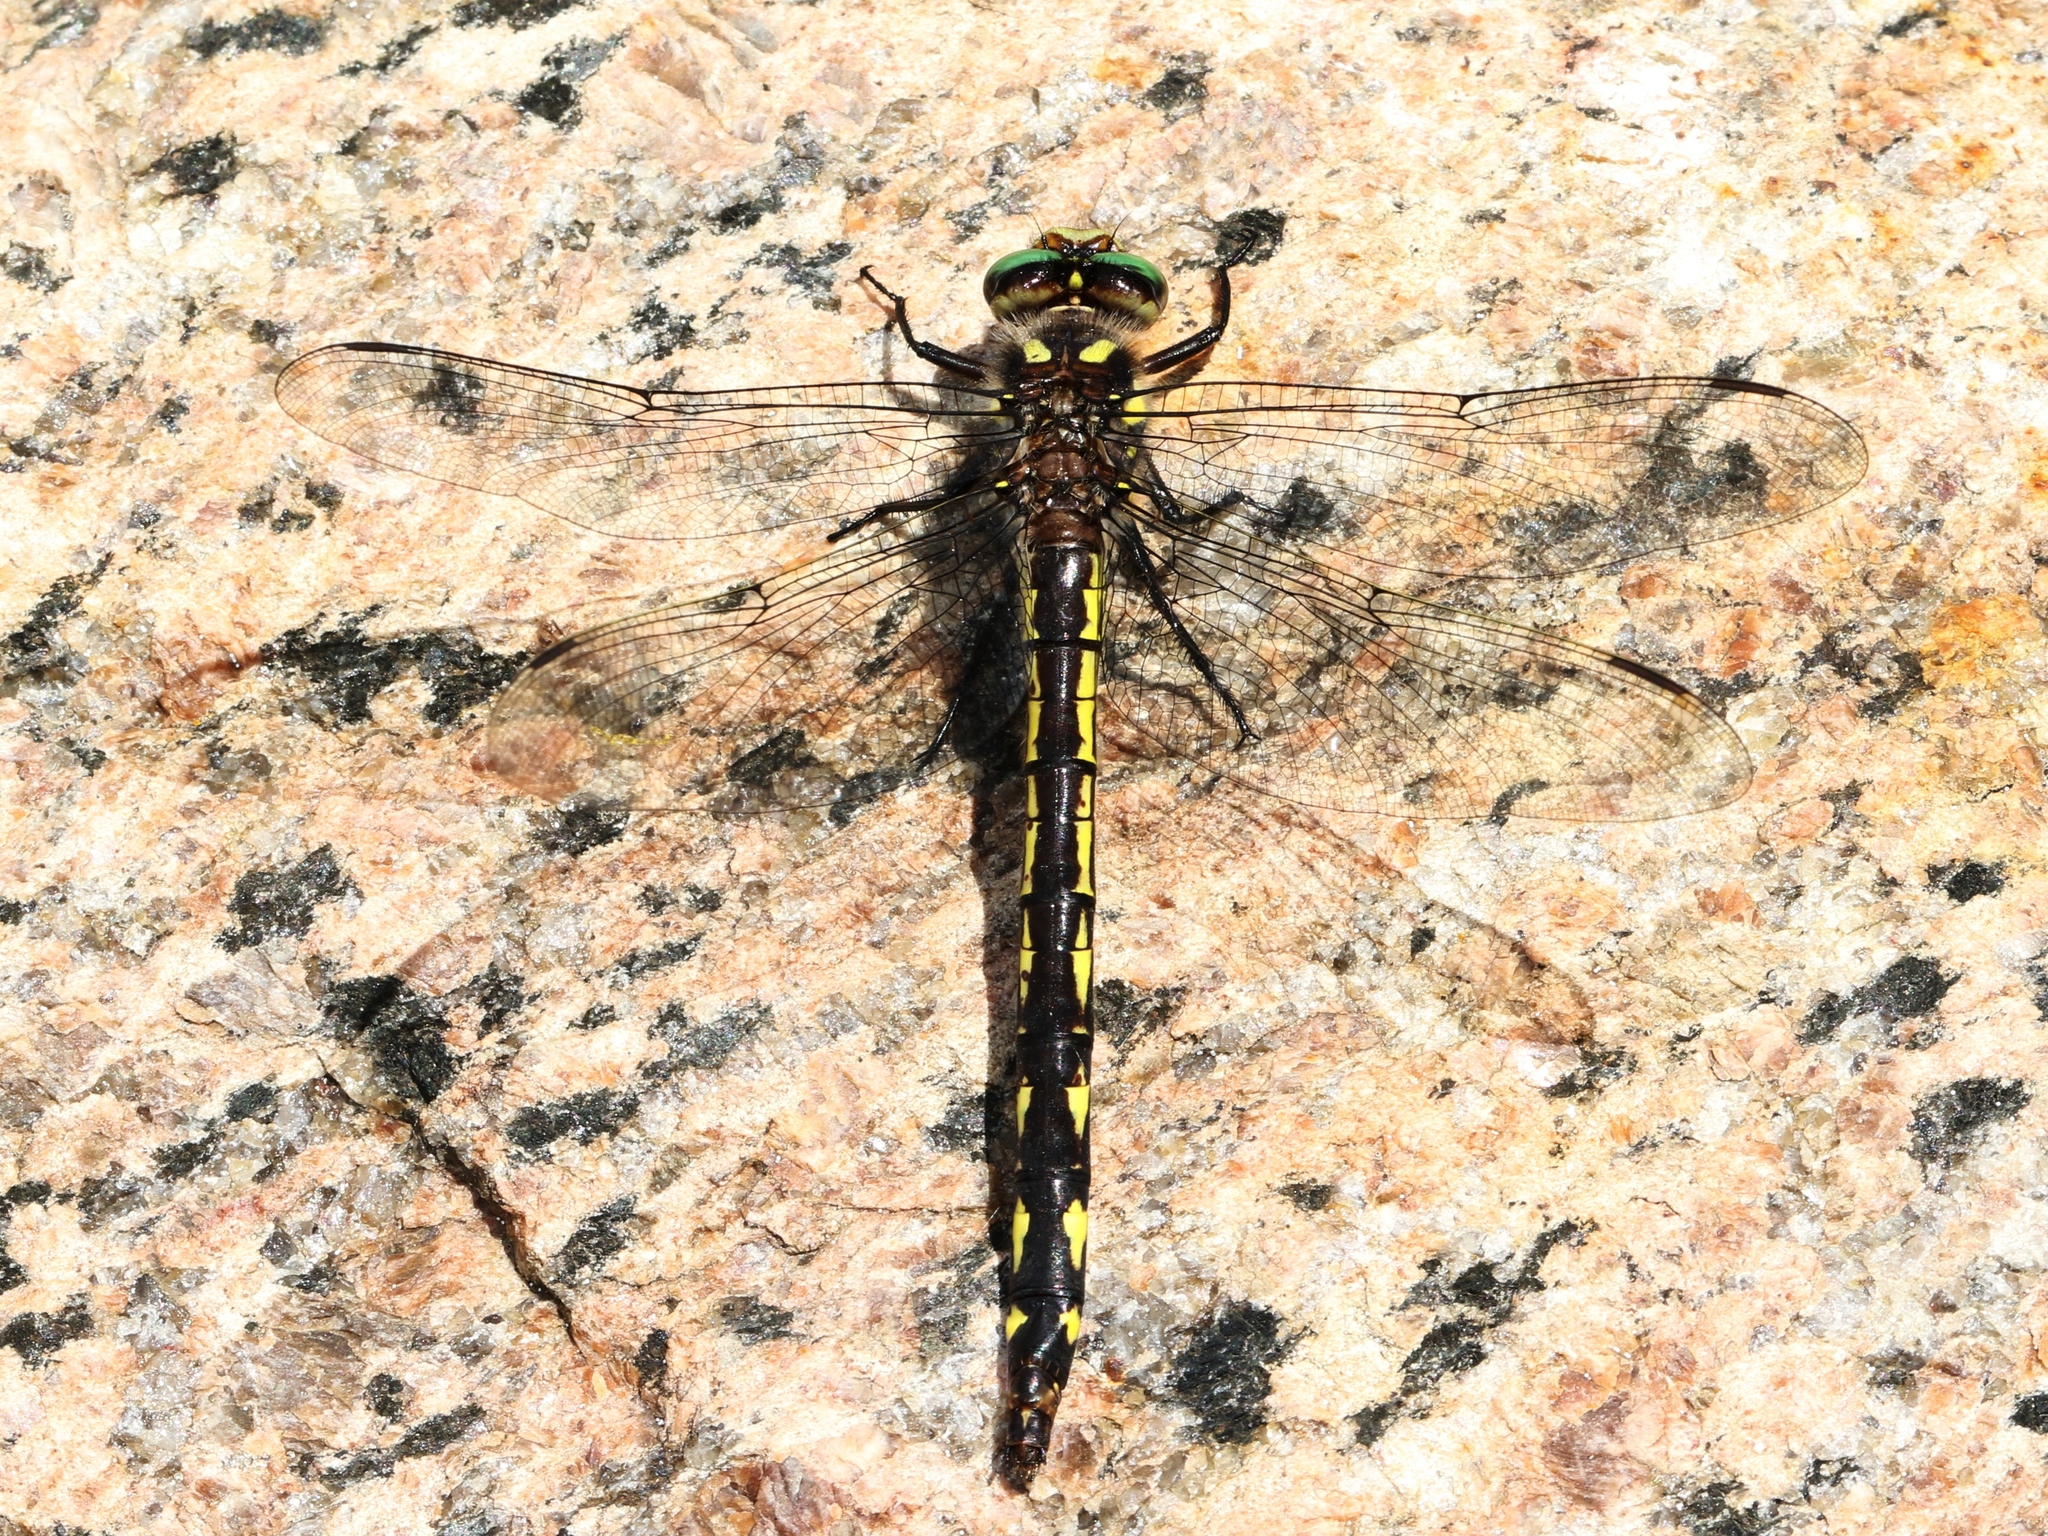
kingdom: Animalia
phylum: Arthropoda
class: Insecta
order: Odonata
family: Cordulegastridae
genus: Cordulegaster
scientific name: Cordulegaster diastatops
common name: Delta-spotted spiketail
